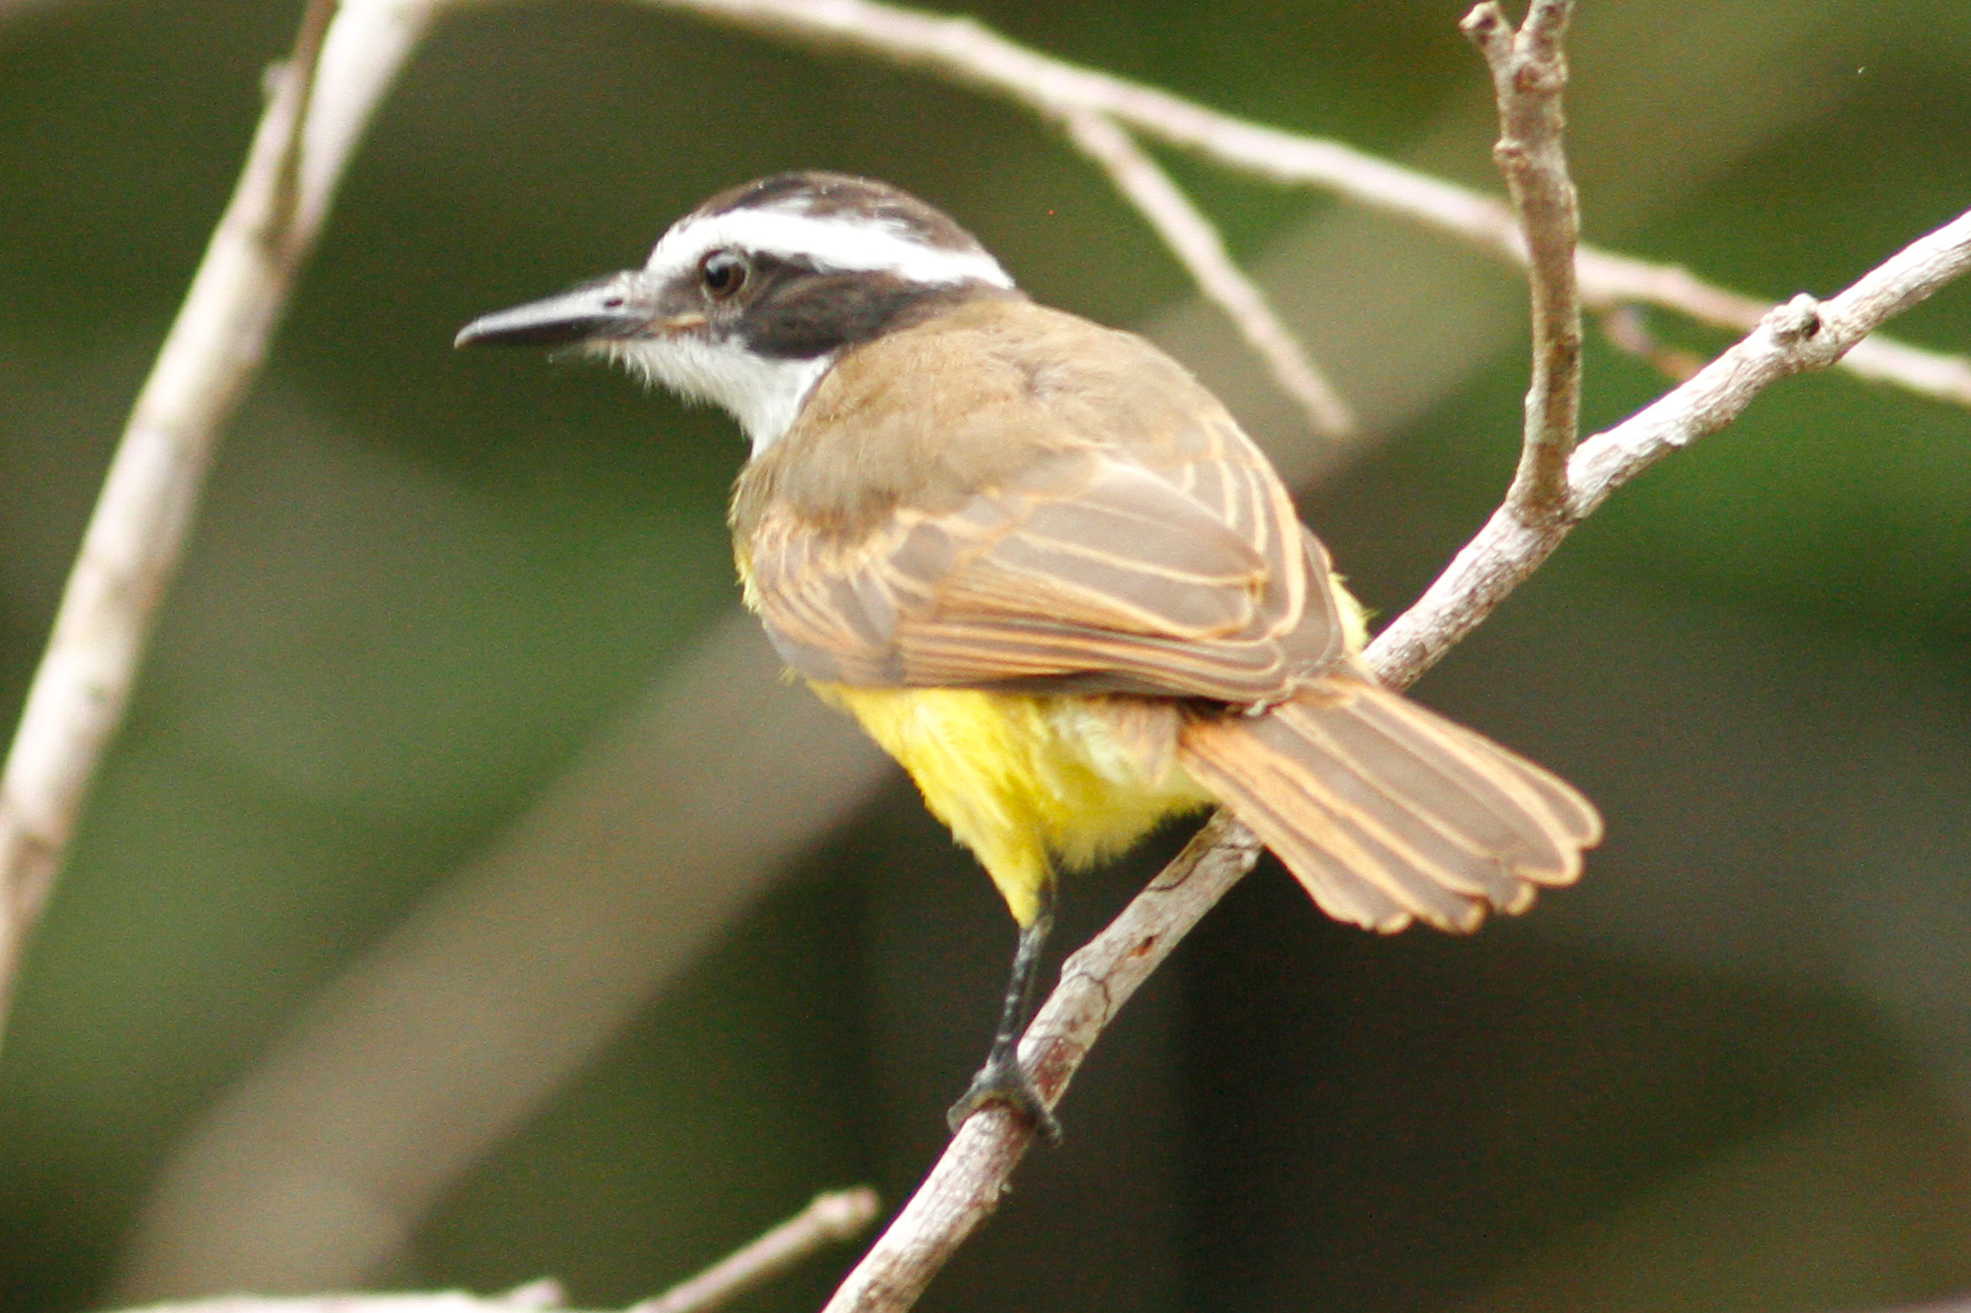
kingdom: Animalia
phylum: Chordata
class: Aves
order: Passeriformes
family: Tyrannidae
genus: Pitangus
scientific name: Pitangus lictor
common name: Lesser kiskadee
